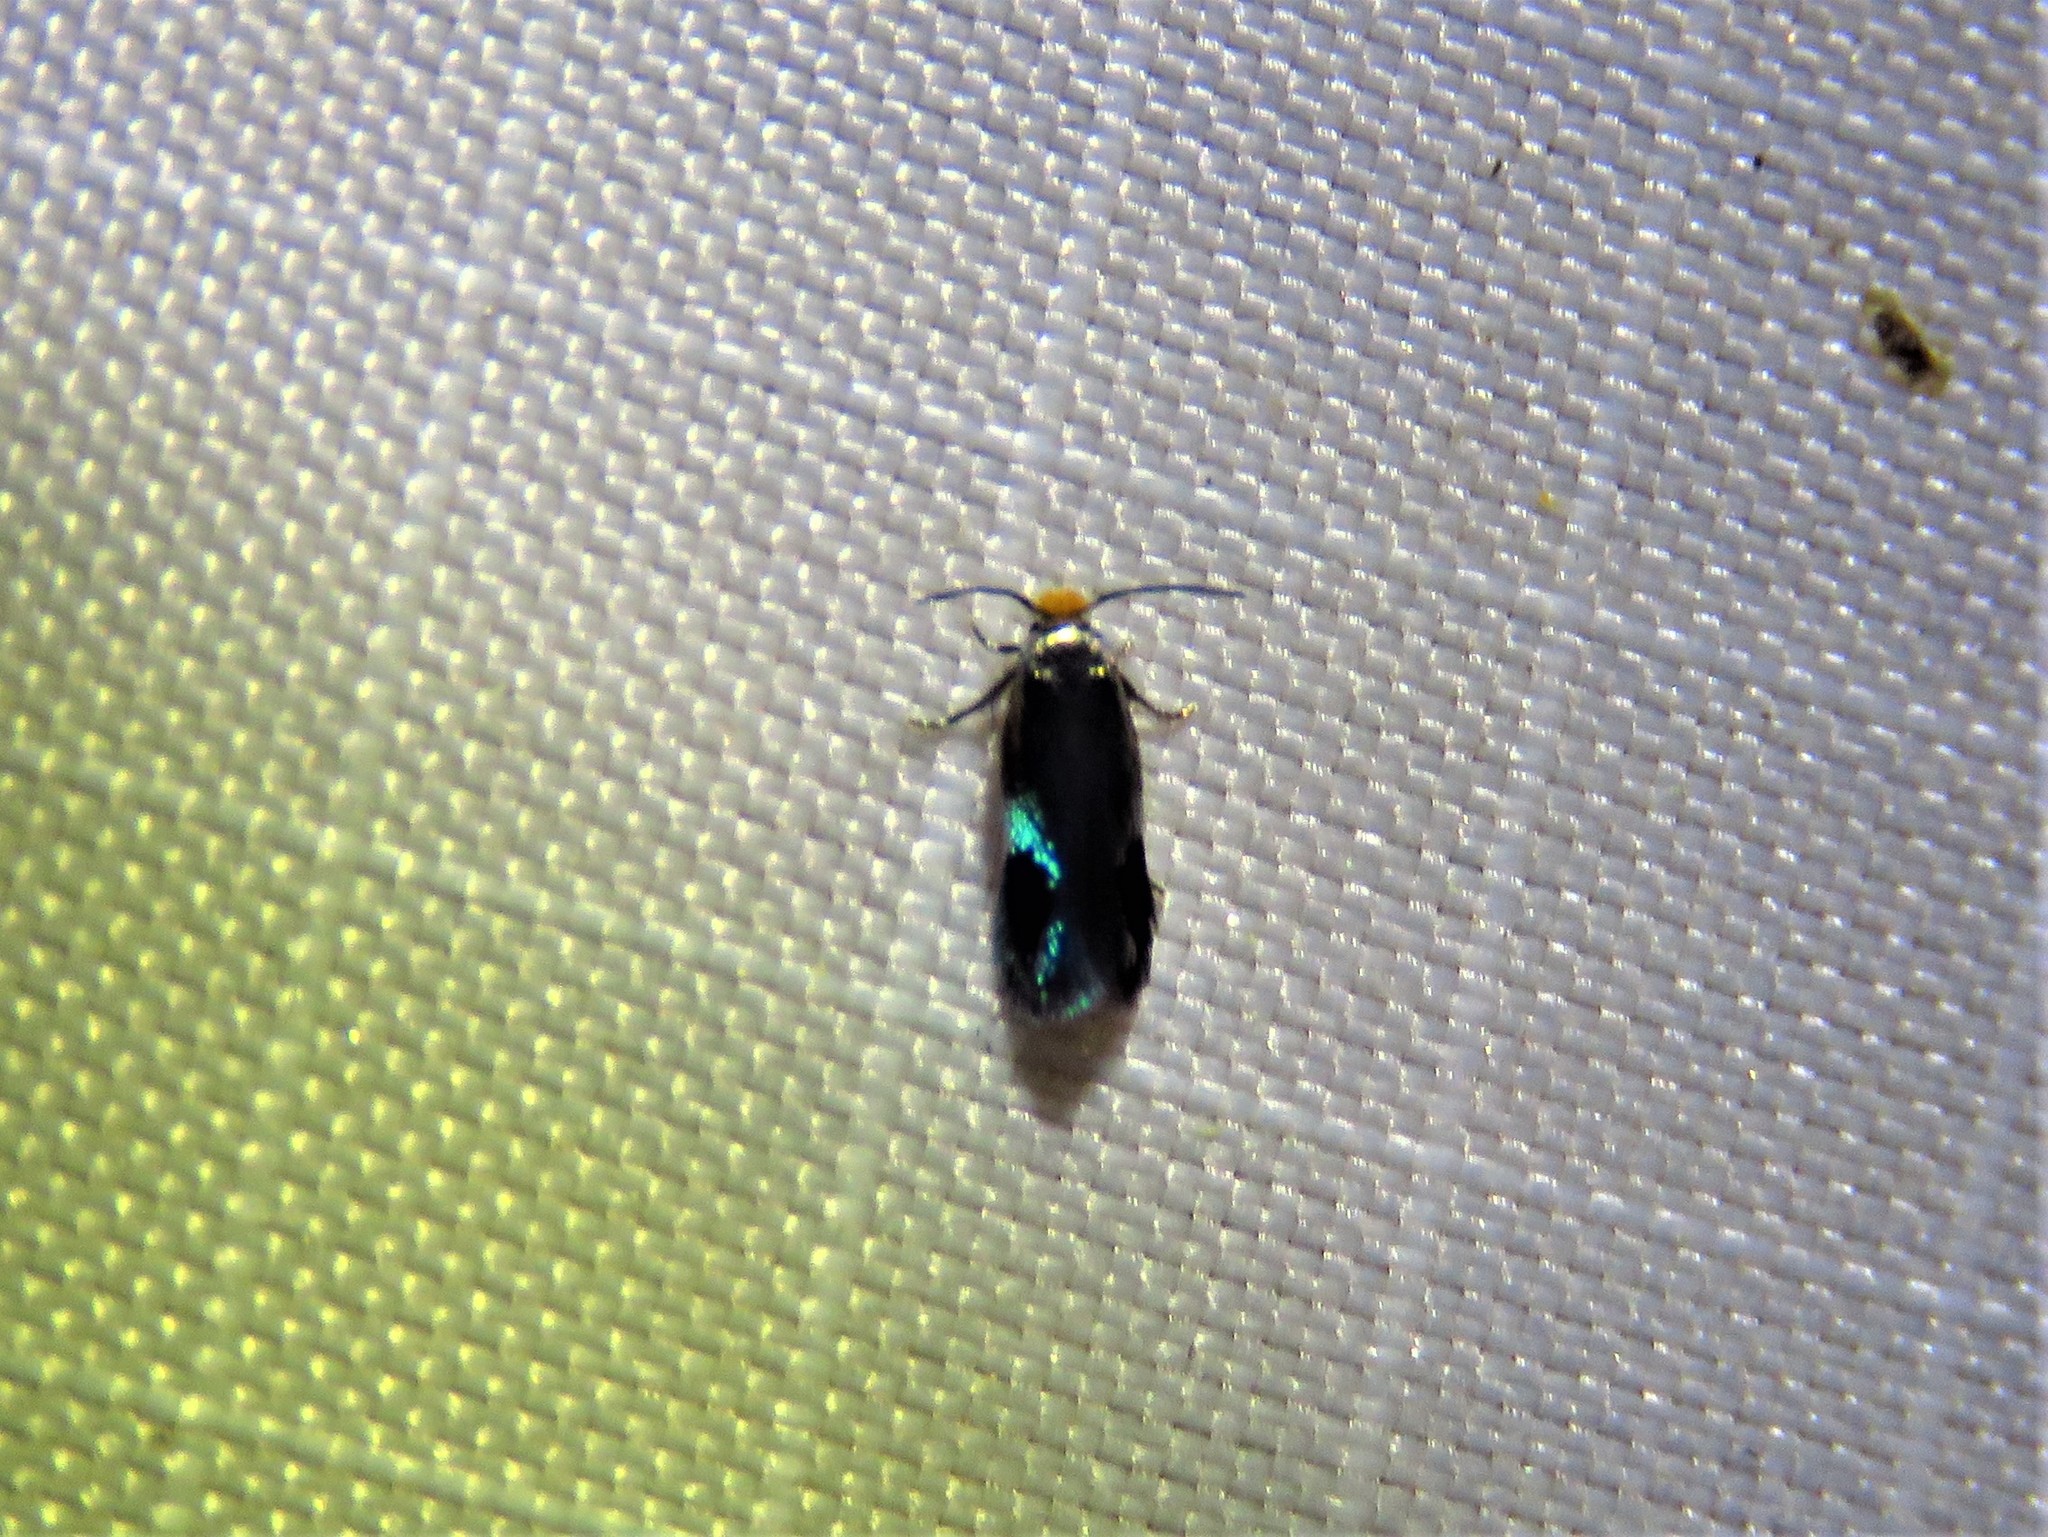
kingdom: Animalia
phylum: Arthropoda
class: Insecta
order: Lepidoptera
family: Nepticulidae
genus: Stigmella
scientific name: Stigmella resplendensella
